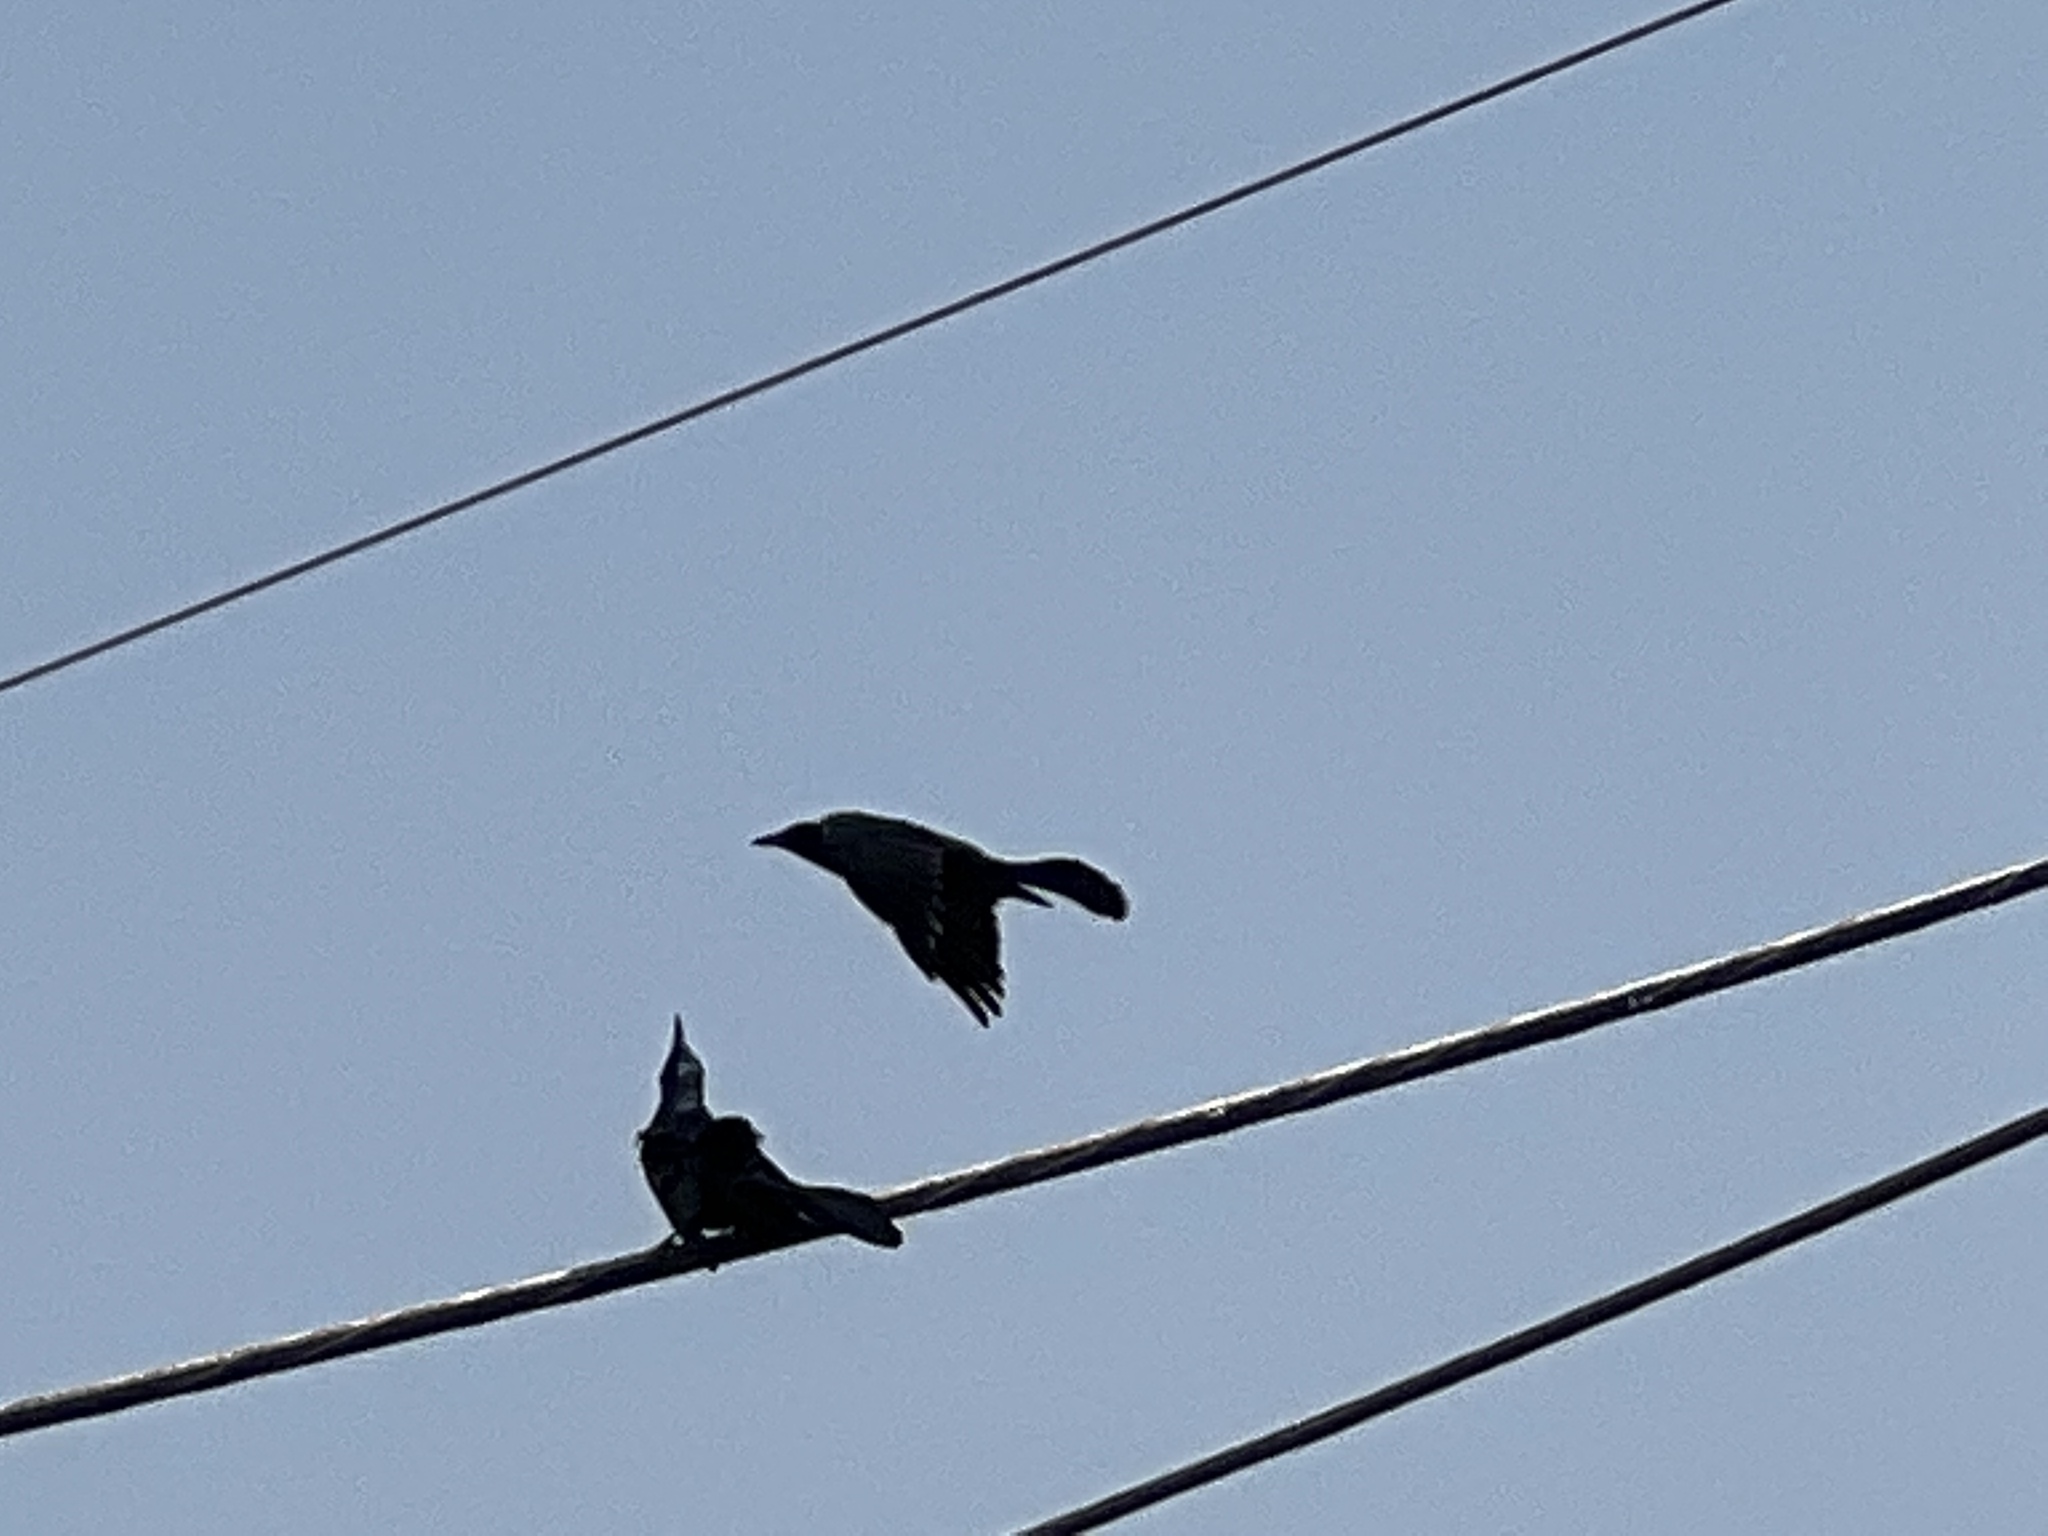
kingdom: Animalia
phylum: Chordata
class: Aves
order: Passeriformes
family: Icteridae
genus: Quiscalus
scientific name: Quiscalus mexicanus
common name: Great-tailed grackle
